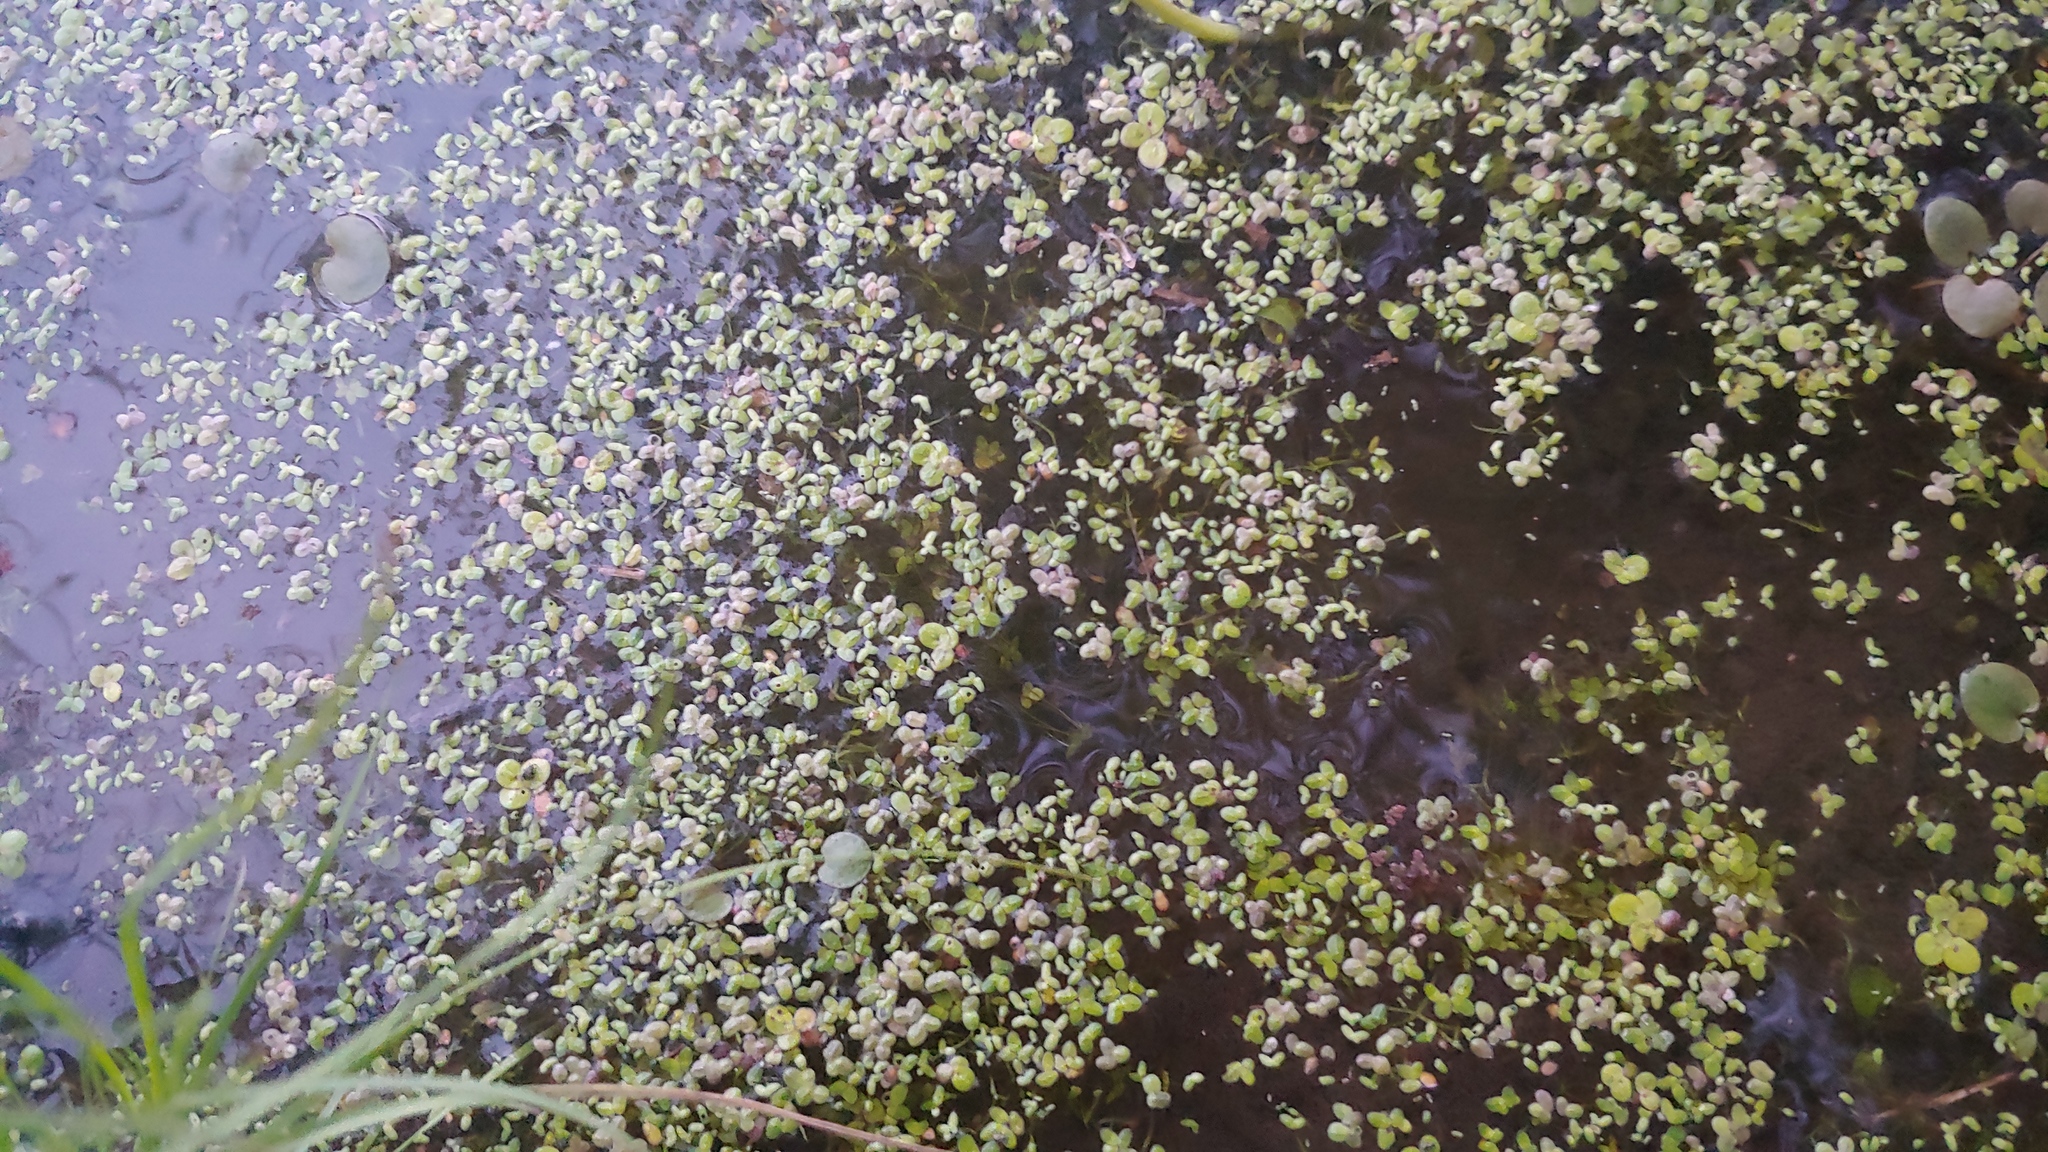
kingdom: Plantae
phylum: Tracheophyta
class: Liliopsida
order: Alismatales
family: Araceae
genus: Wolffiella
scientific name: Wolffiella gladiata
